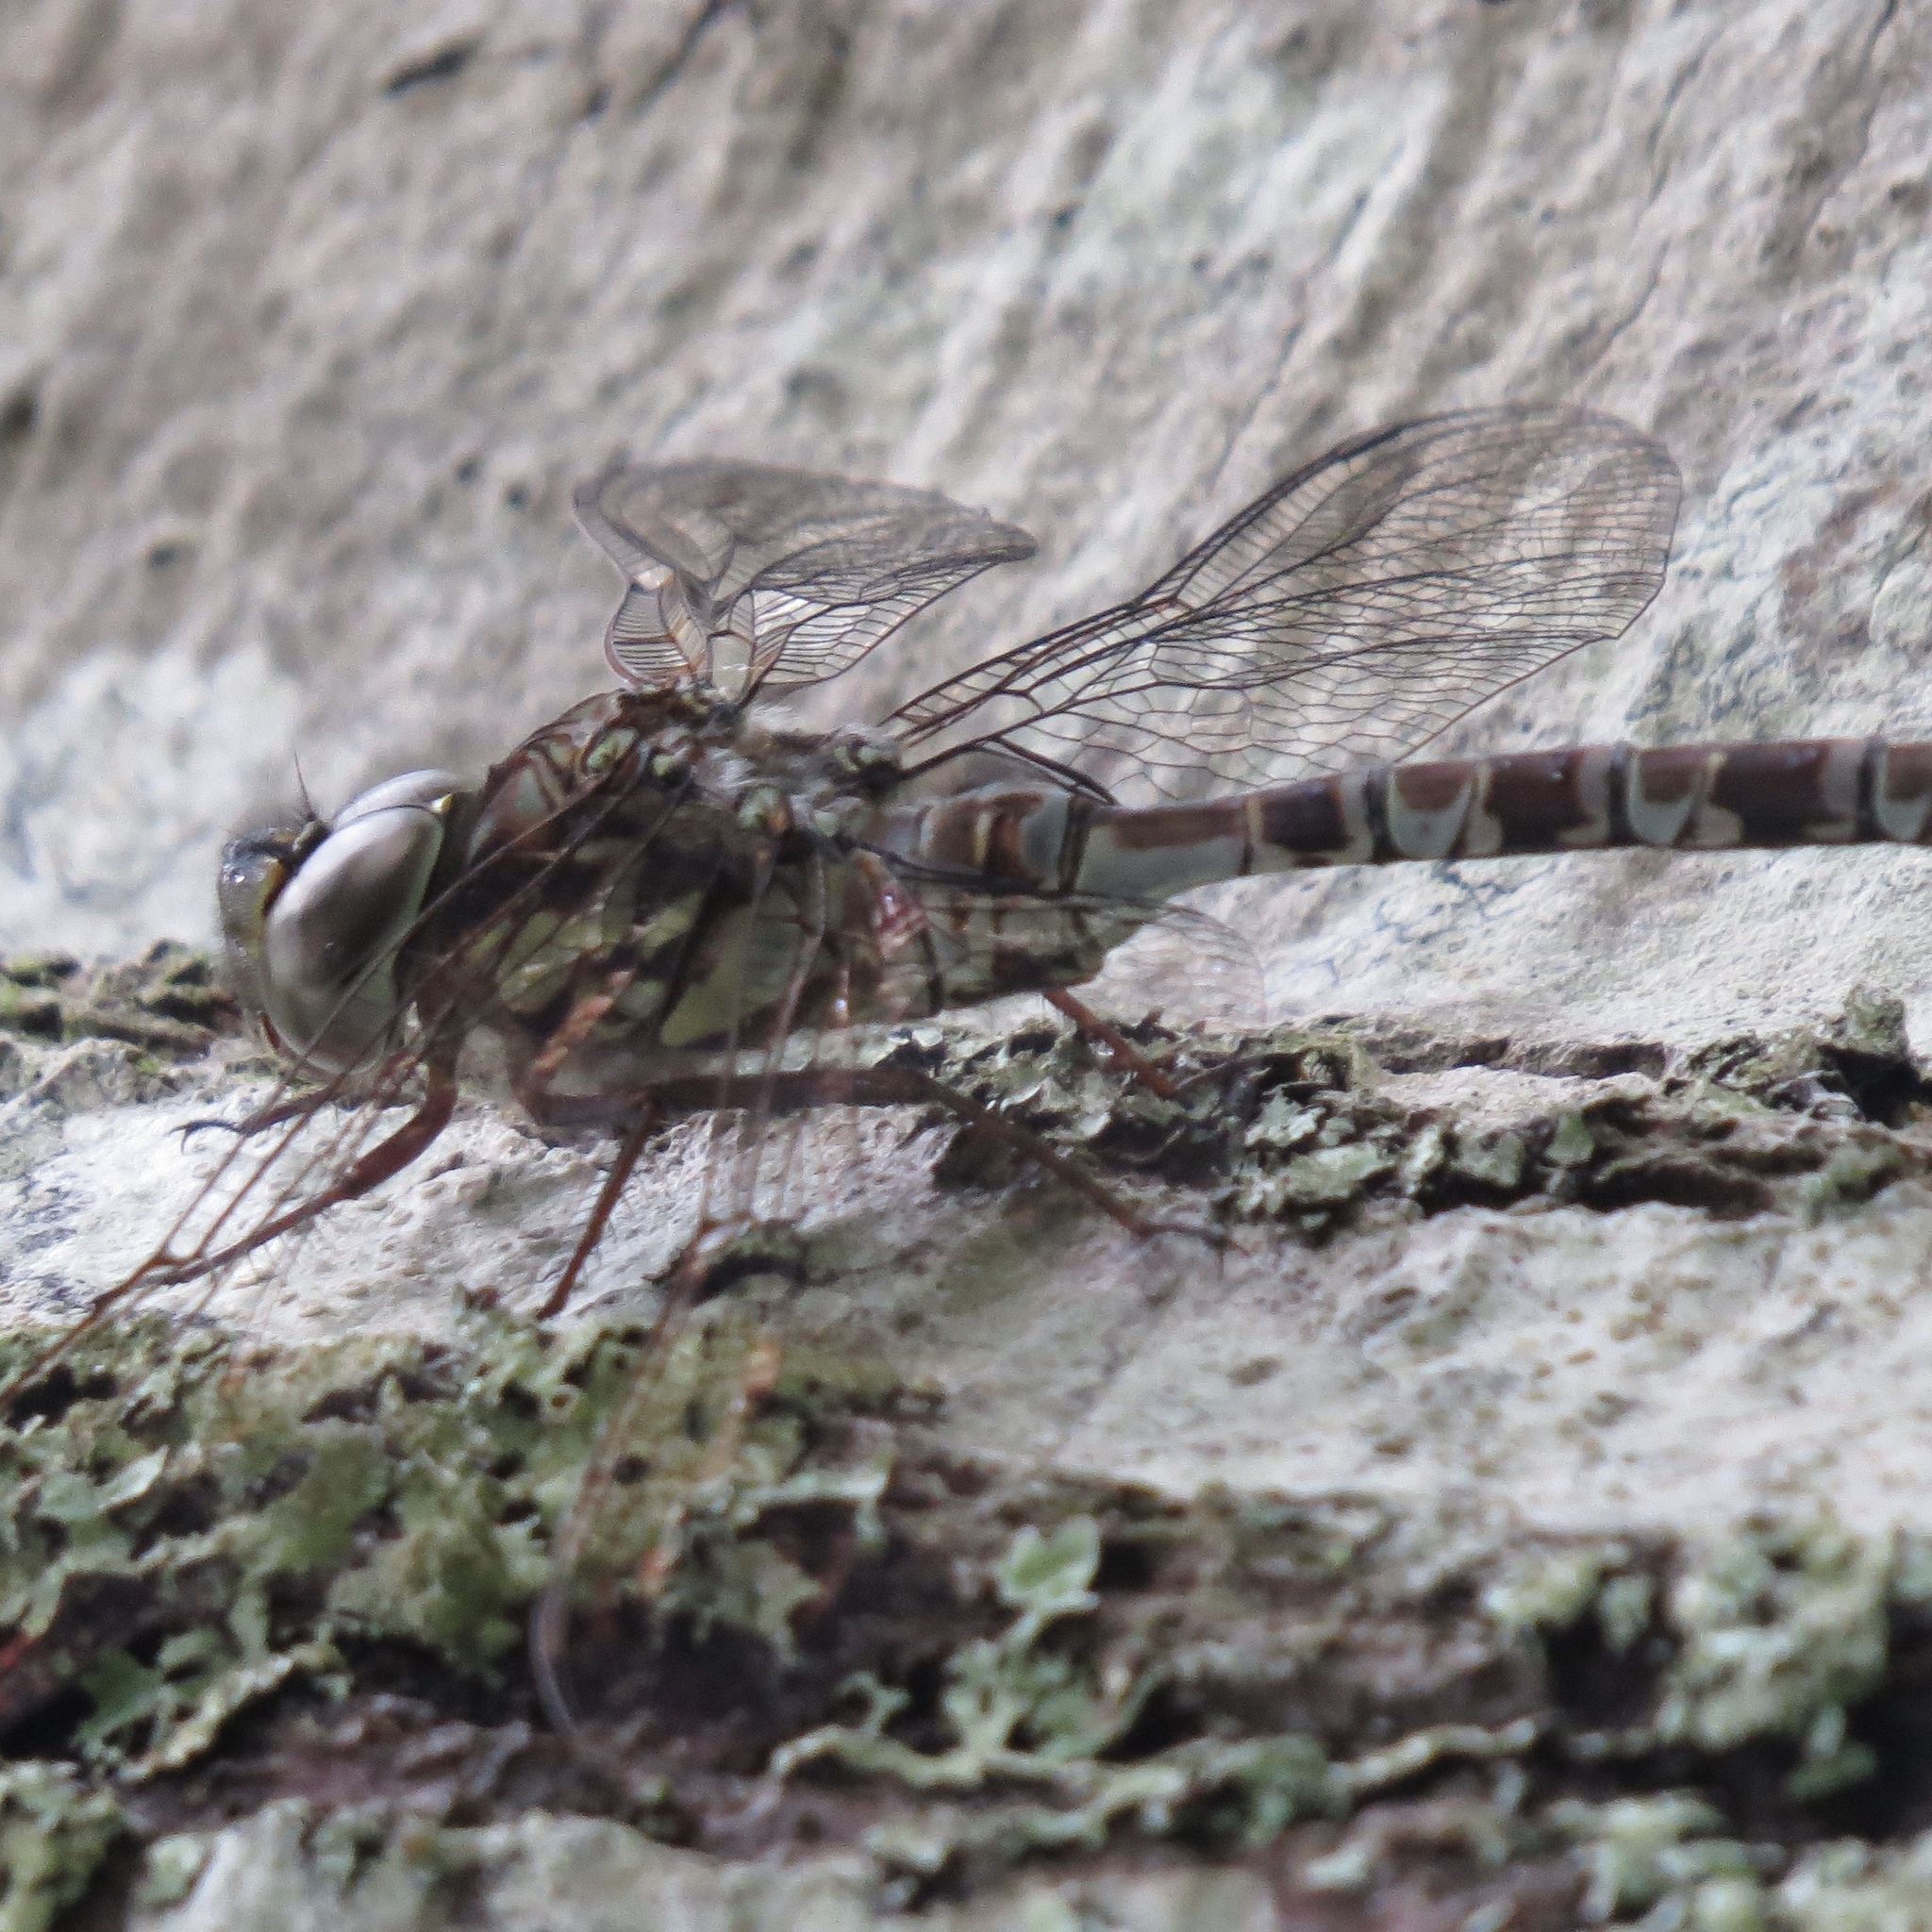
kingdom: Animalia
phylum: Arthropoda
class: Insecta
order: Odonata
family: Aeshnidae
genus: Aeshna
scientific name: Aeshna clepsydra
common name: Mottled darner
